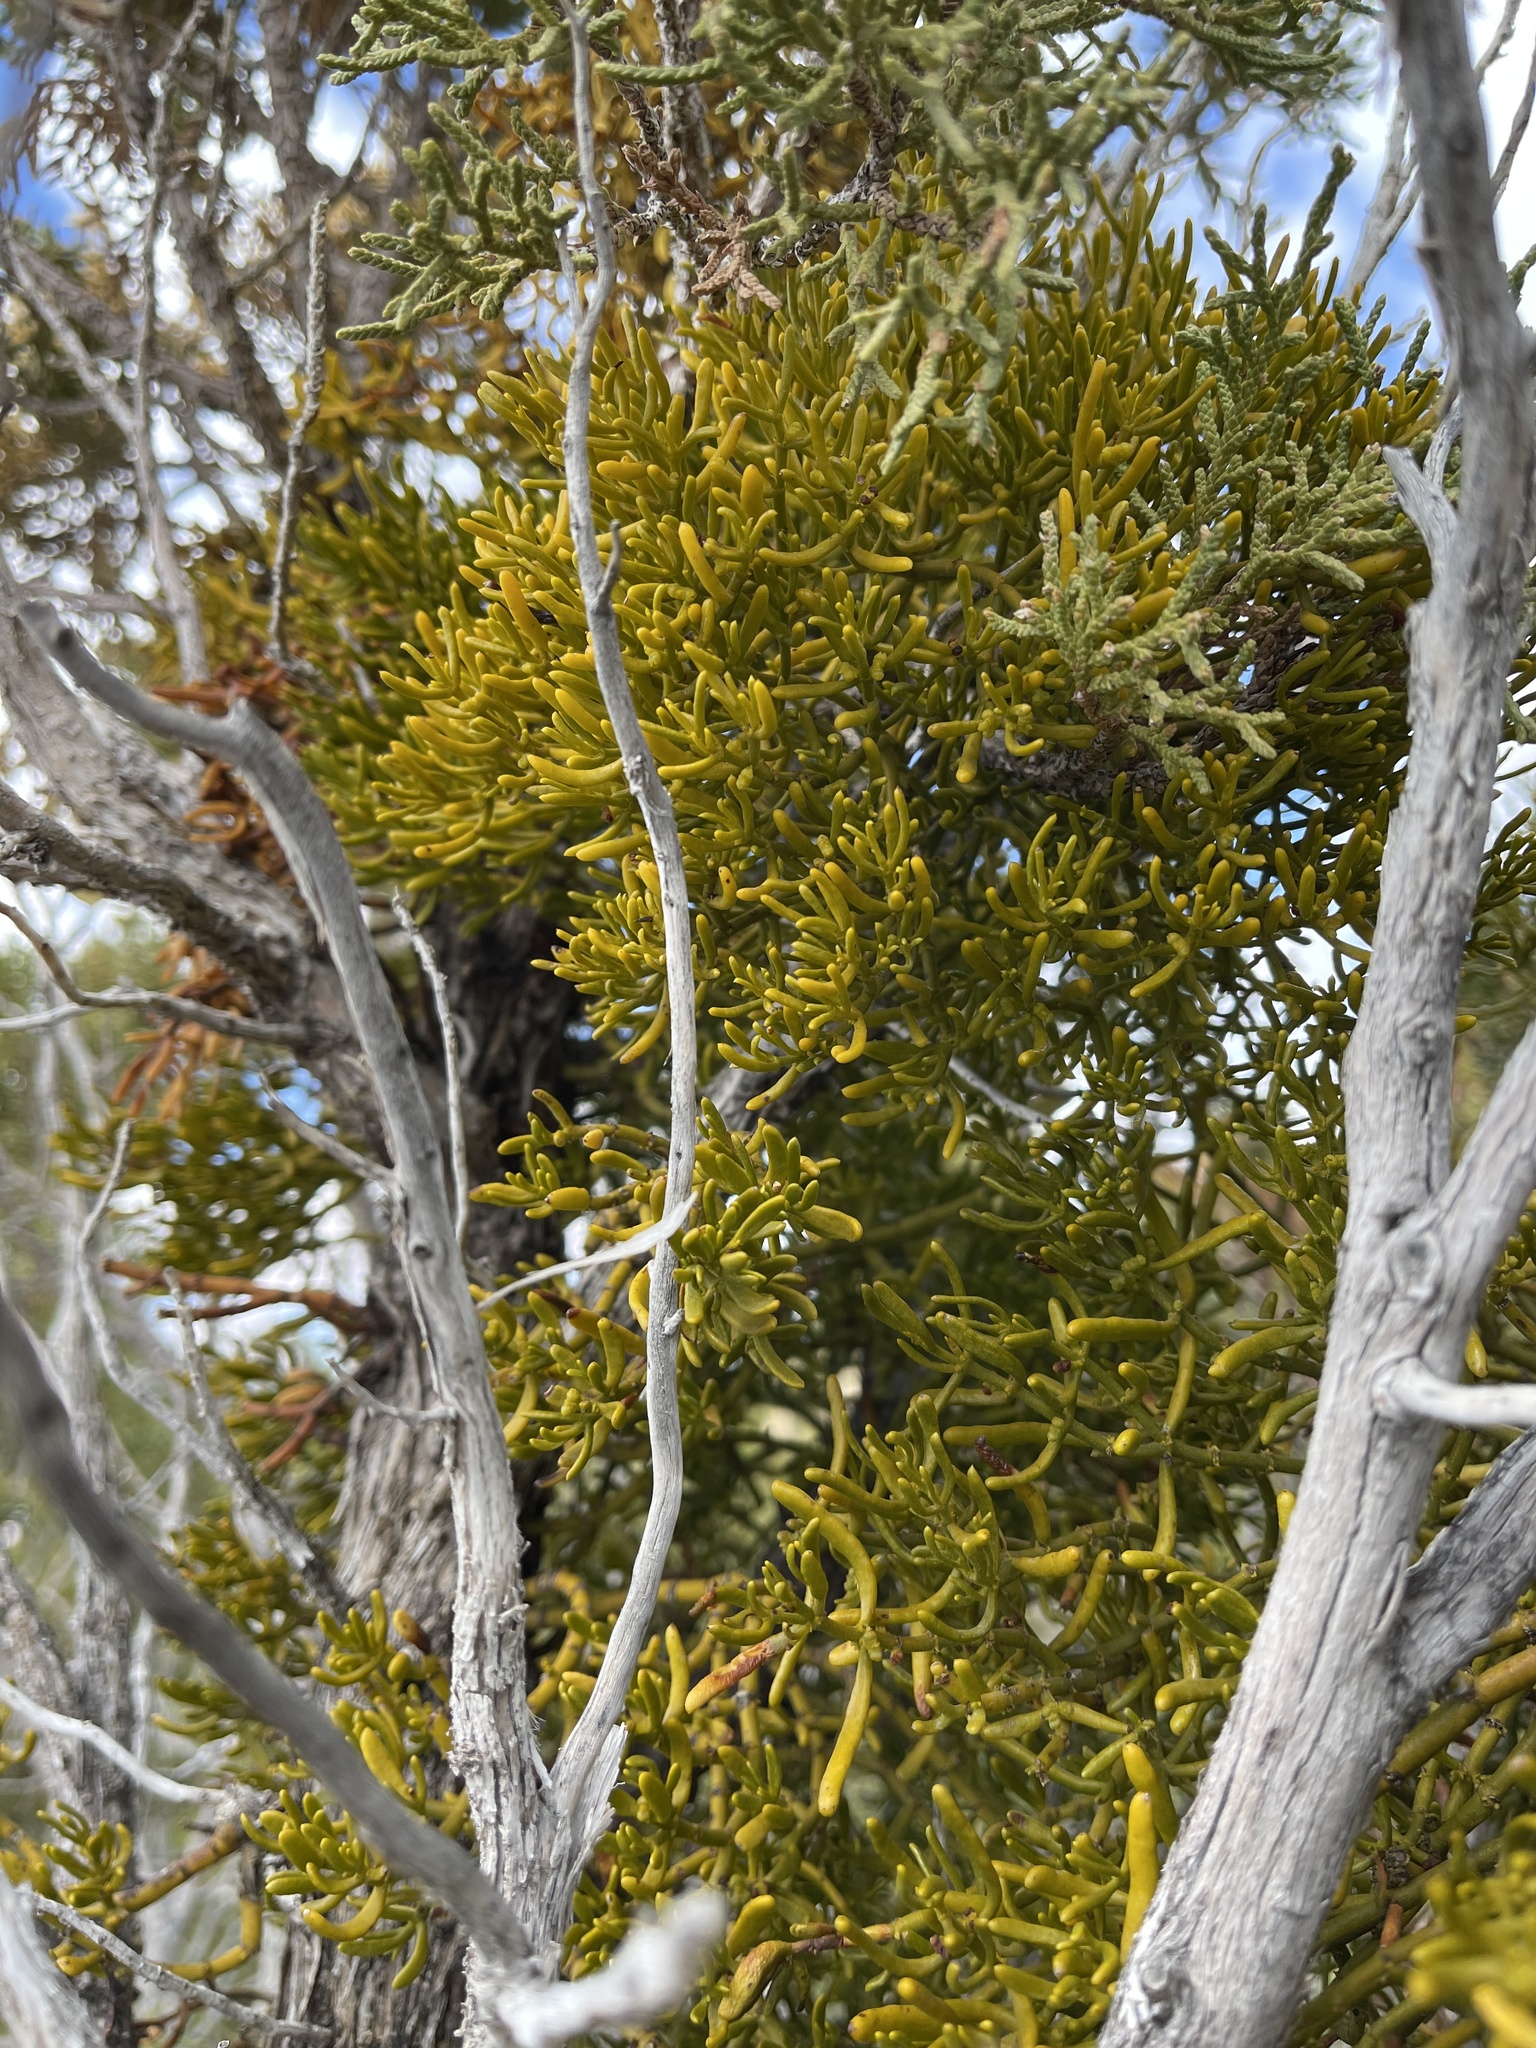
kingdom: Plantae
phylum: Tracheophyta
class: Magnoliopsida
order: Santalales
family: Viscaceae
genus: Phoradendron
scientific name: Phoradendron hawksworthii
